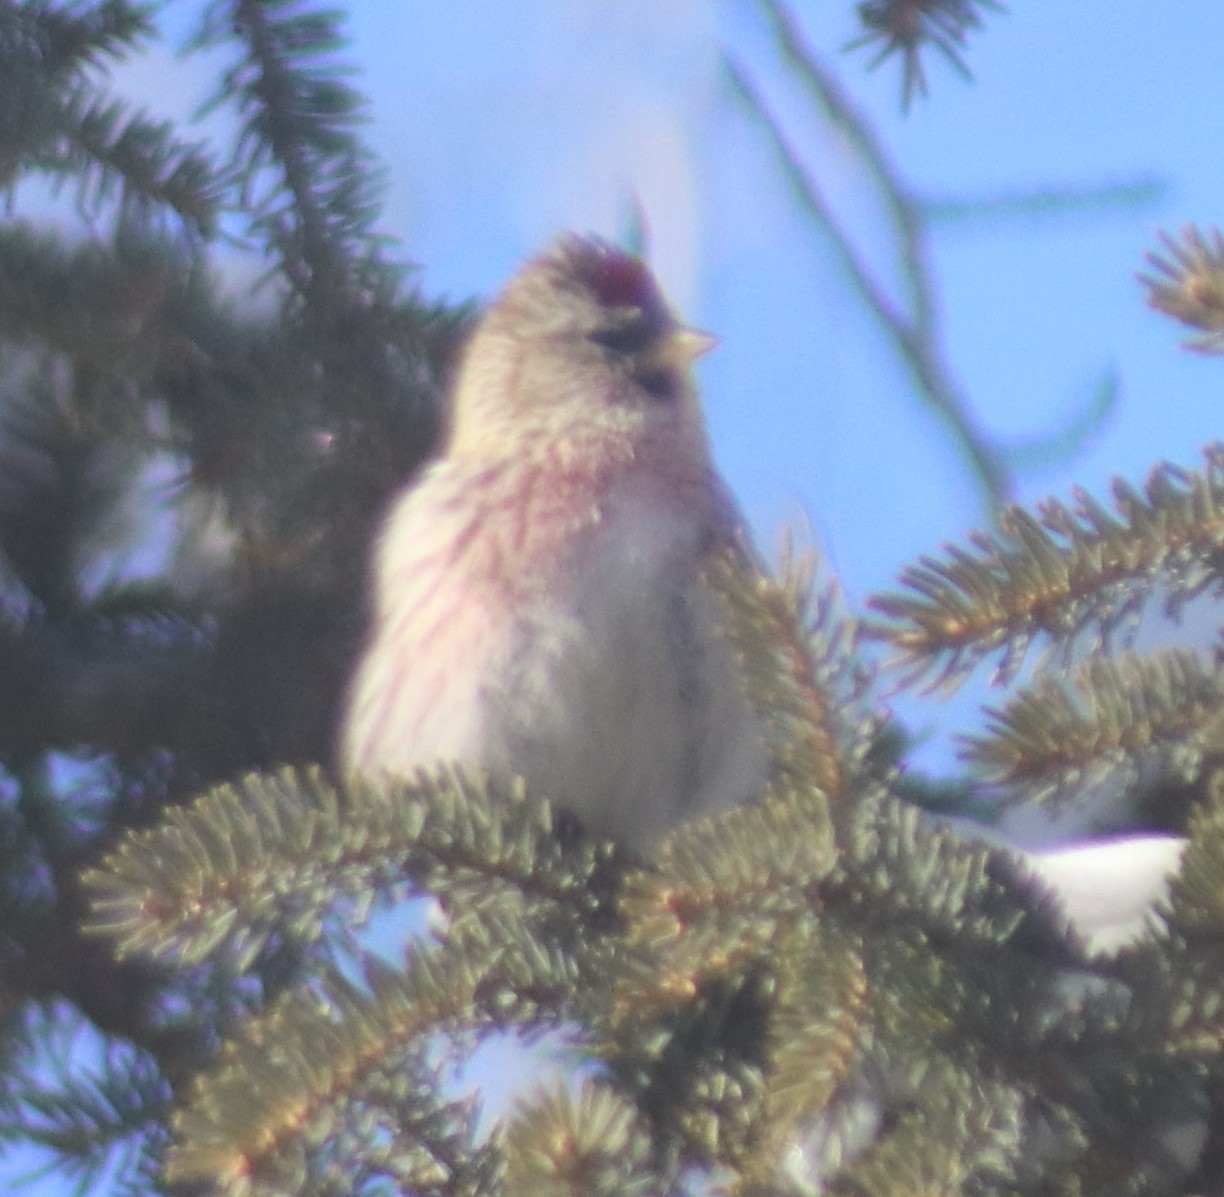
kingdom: Animalia
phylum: Chordata
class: Aves
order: Passeriformes
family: Fringillidae
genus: Acanthis
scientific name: Acanthis flammea
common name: Common redpoll
